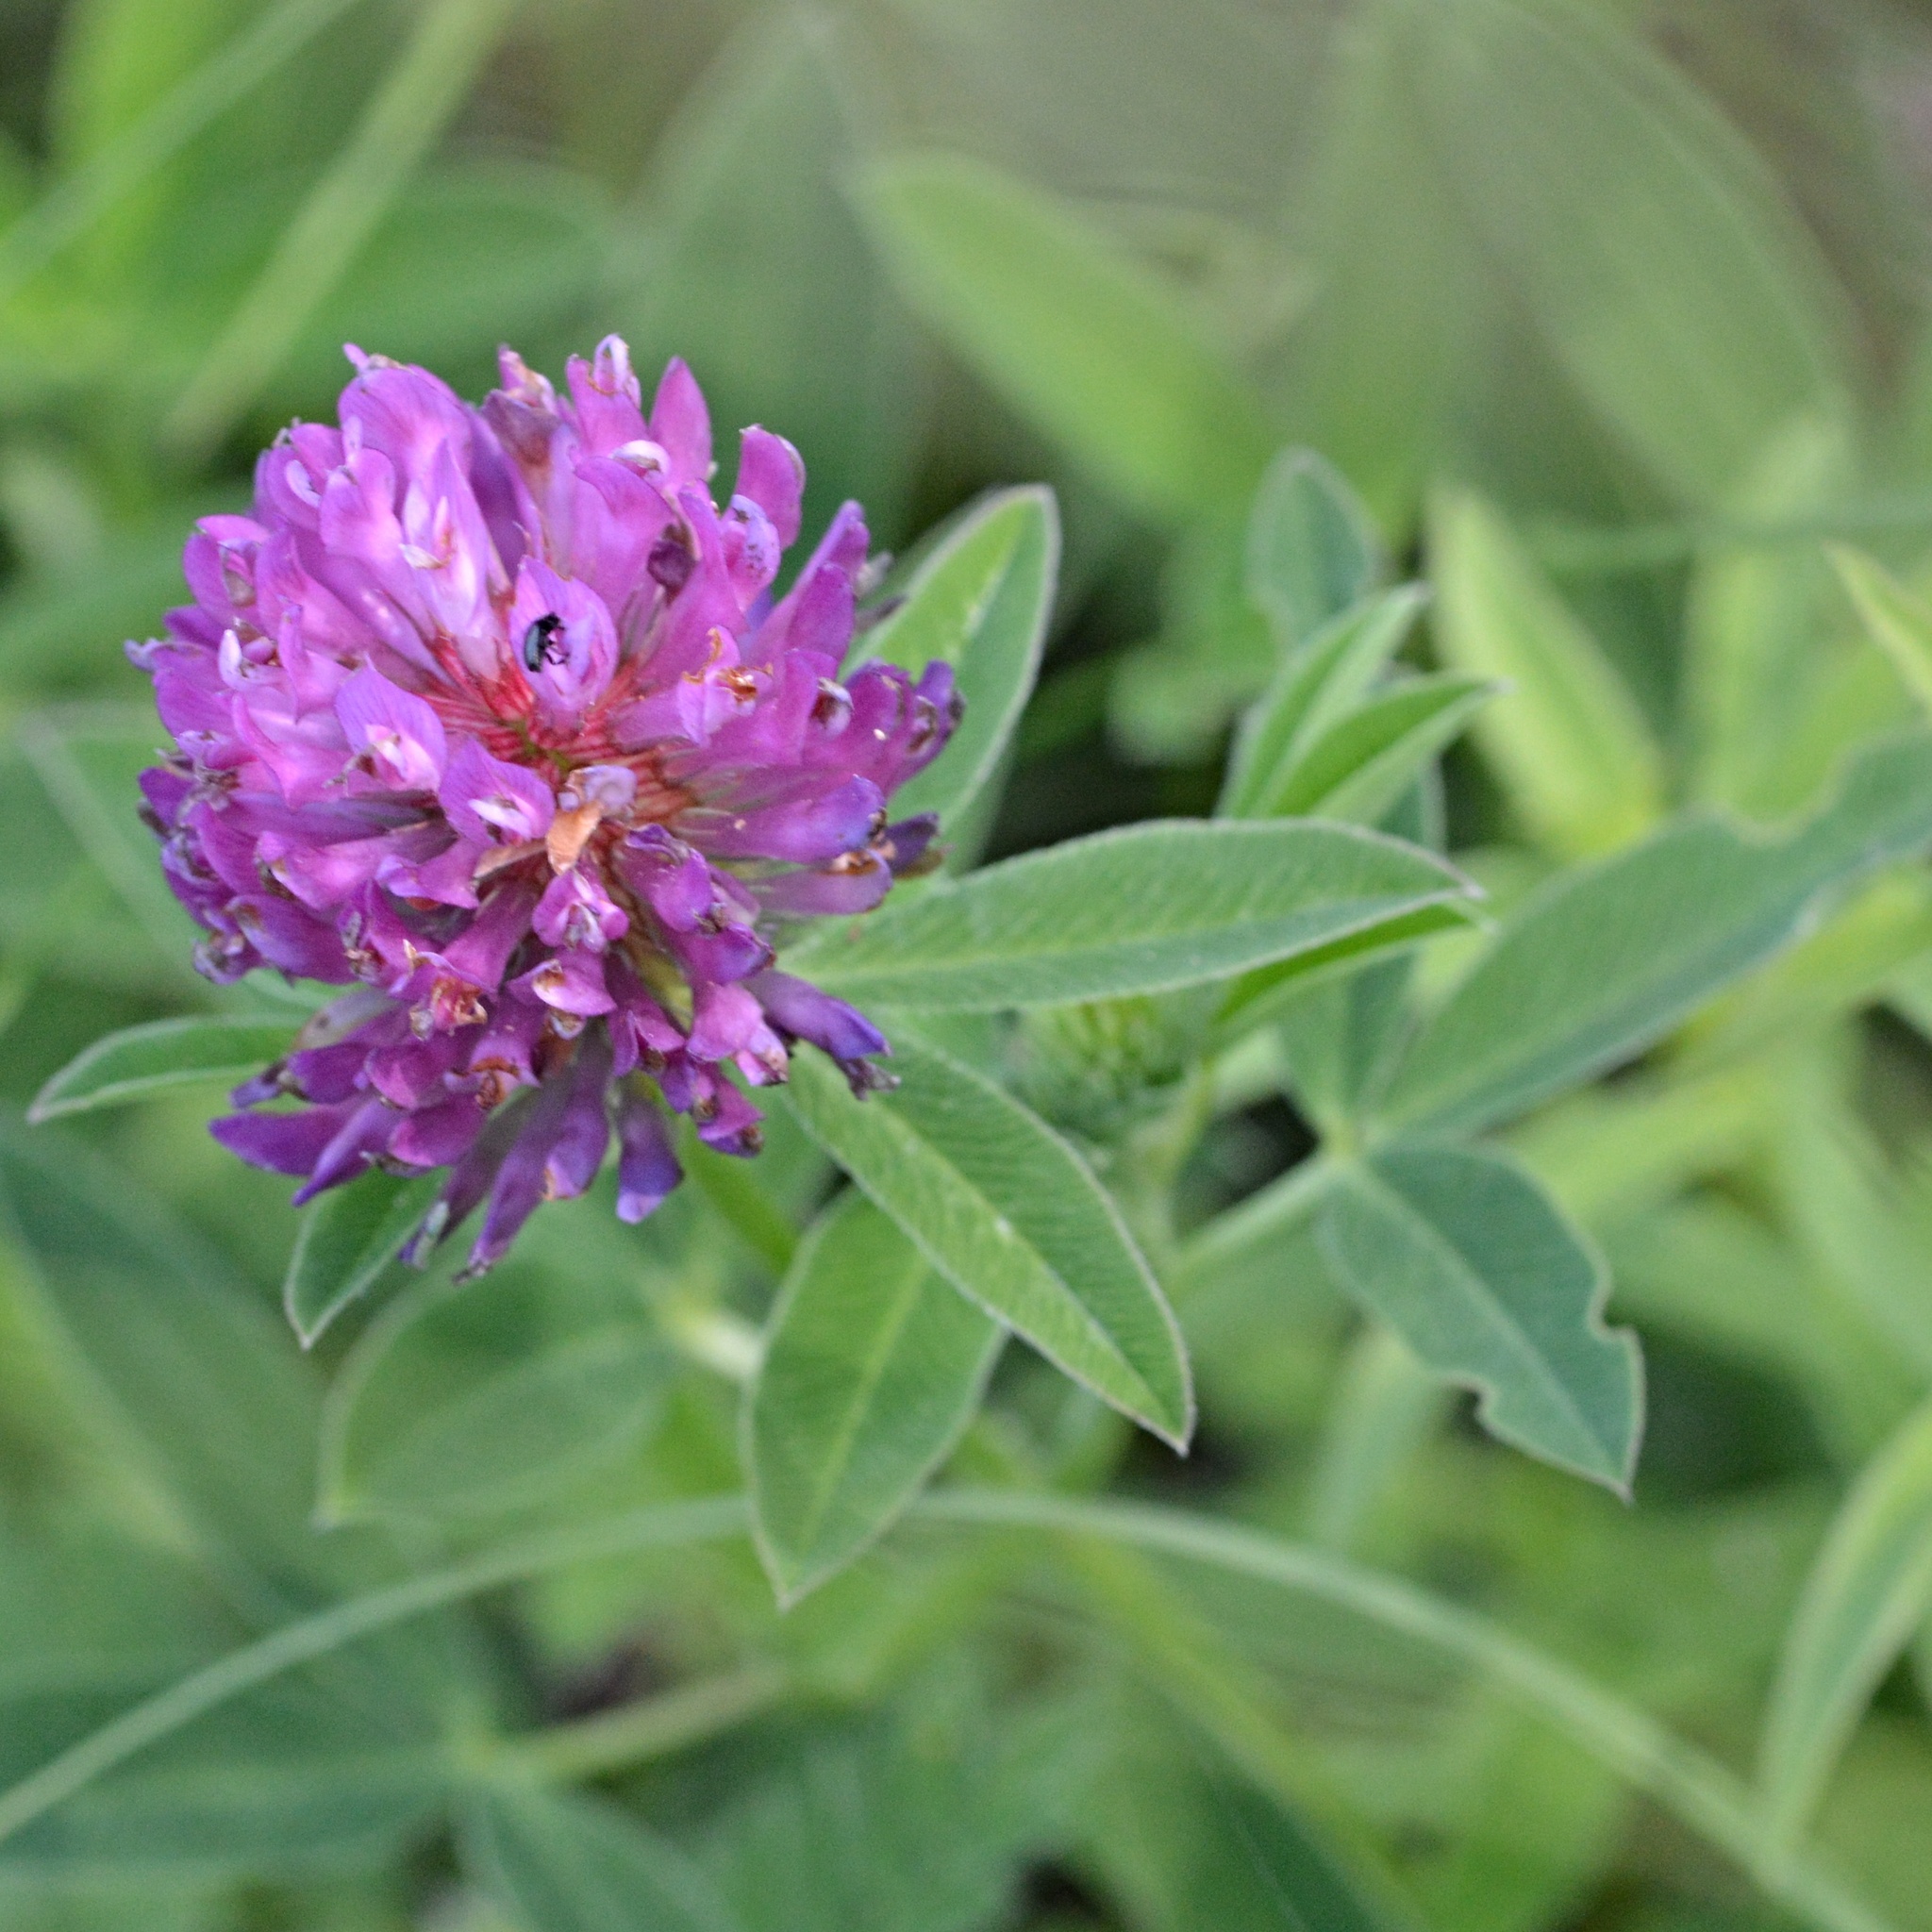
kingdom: Plantae
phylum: Tracheophyta
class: Magnoliopsida
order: Fabales
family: Fabaceae
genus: Trifolium
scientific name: Trifolium medium
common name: Zigzag clover
